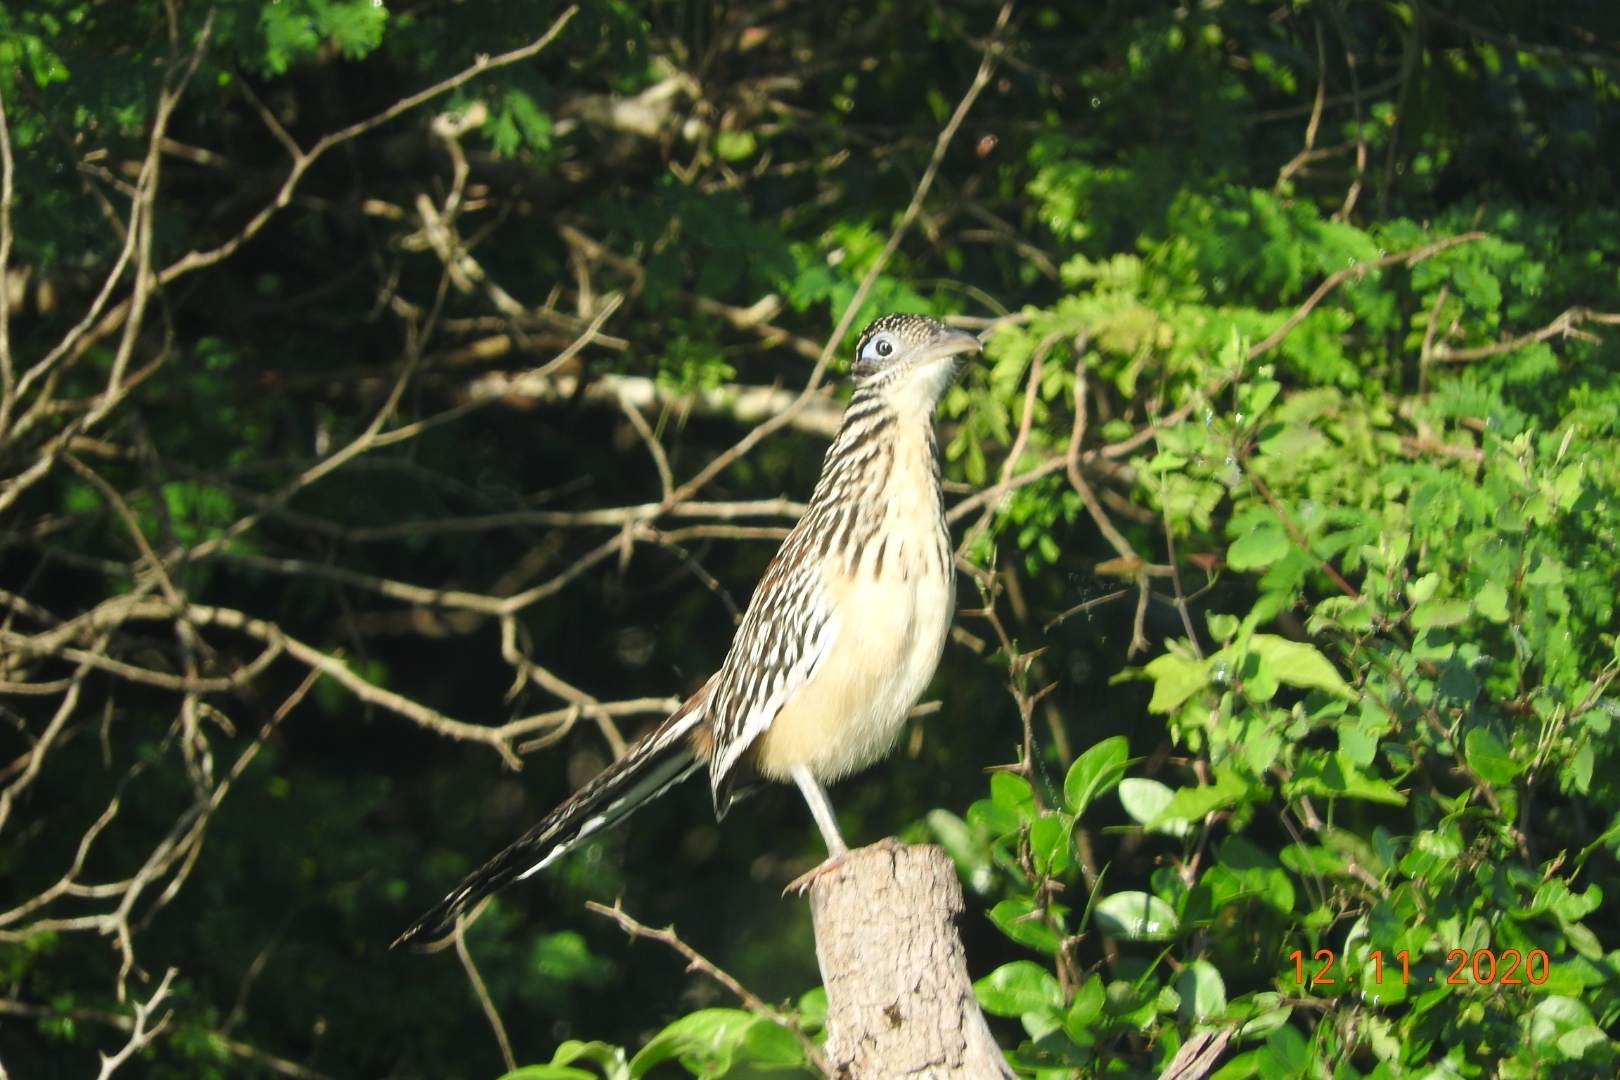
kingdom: Animalia
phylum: Chordata
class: Aves
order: Cuculiformes
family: Cuculidae
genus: Geococcyx
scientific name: Geococcyx velox
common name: Lesser roadrunner
